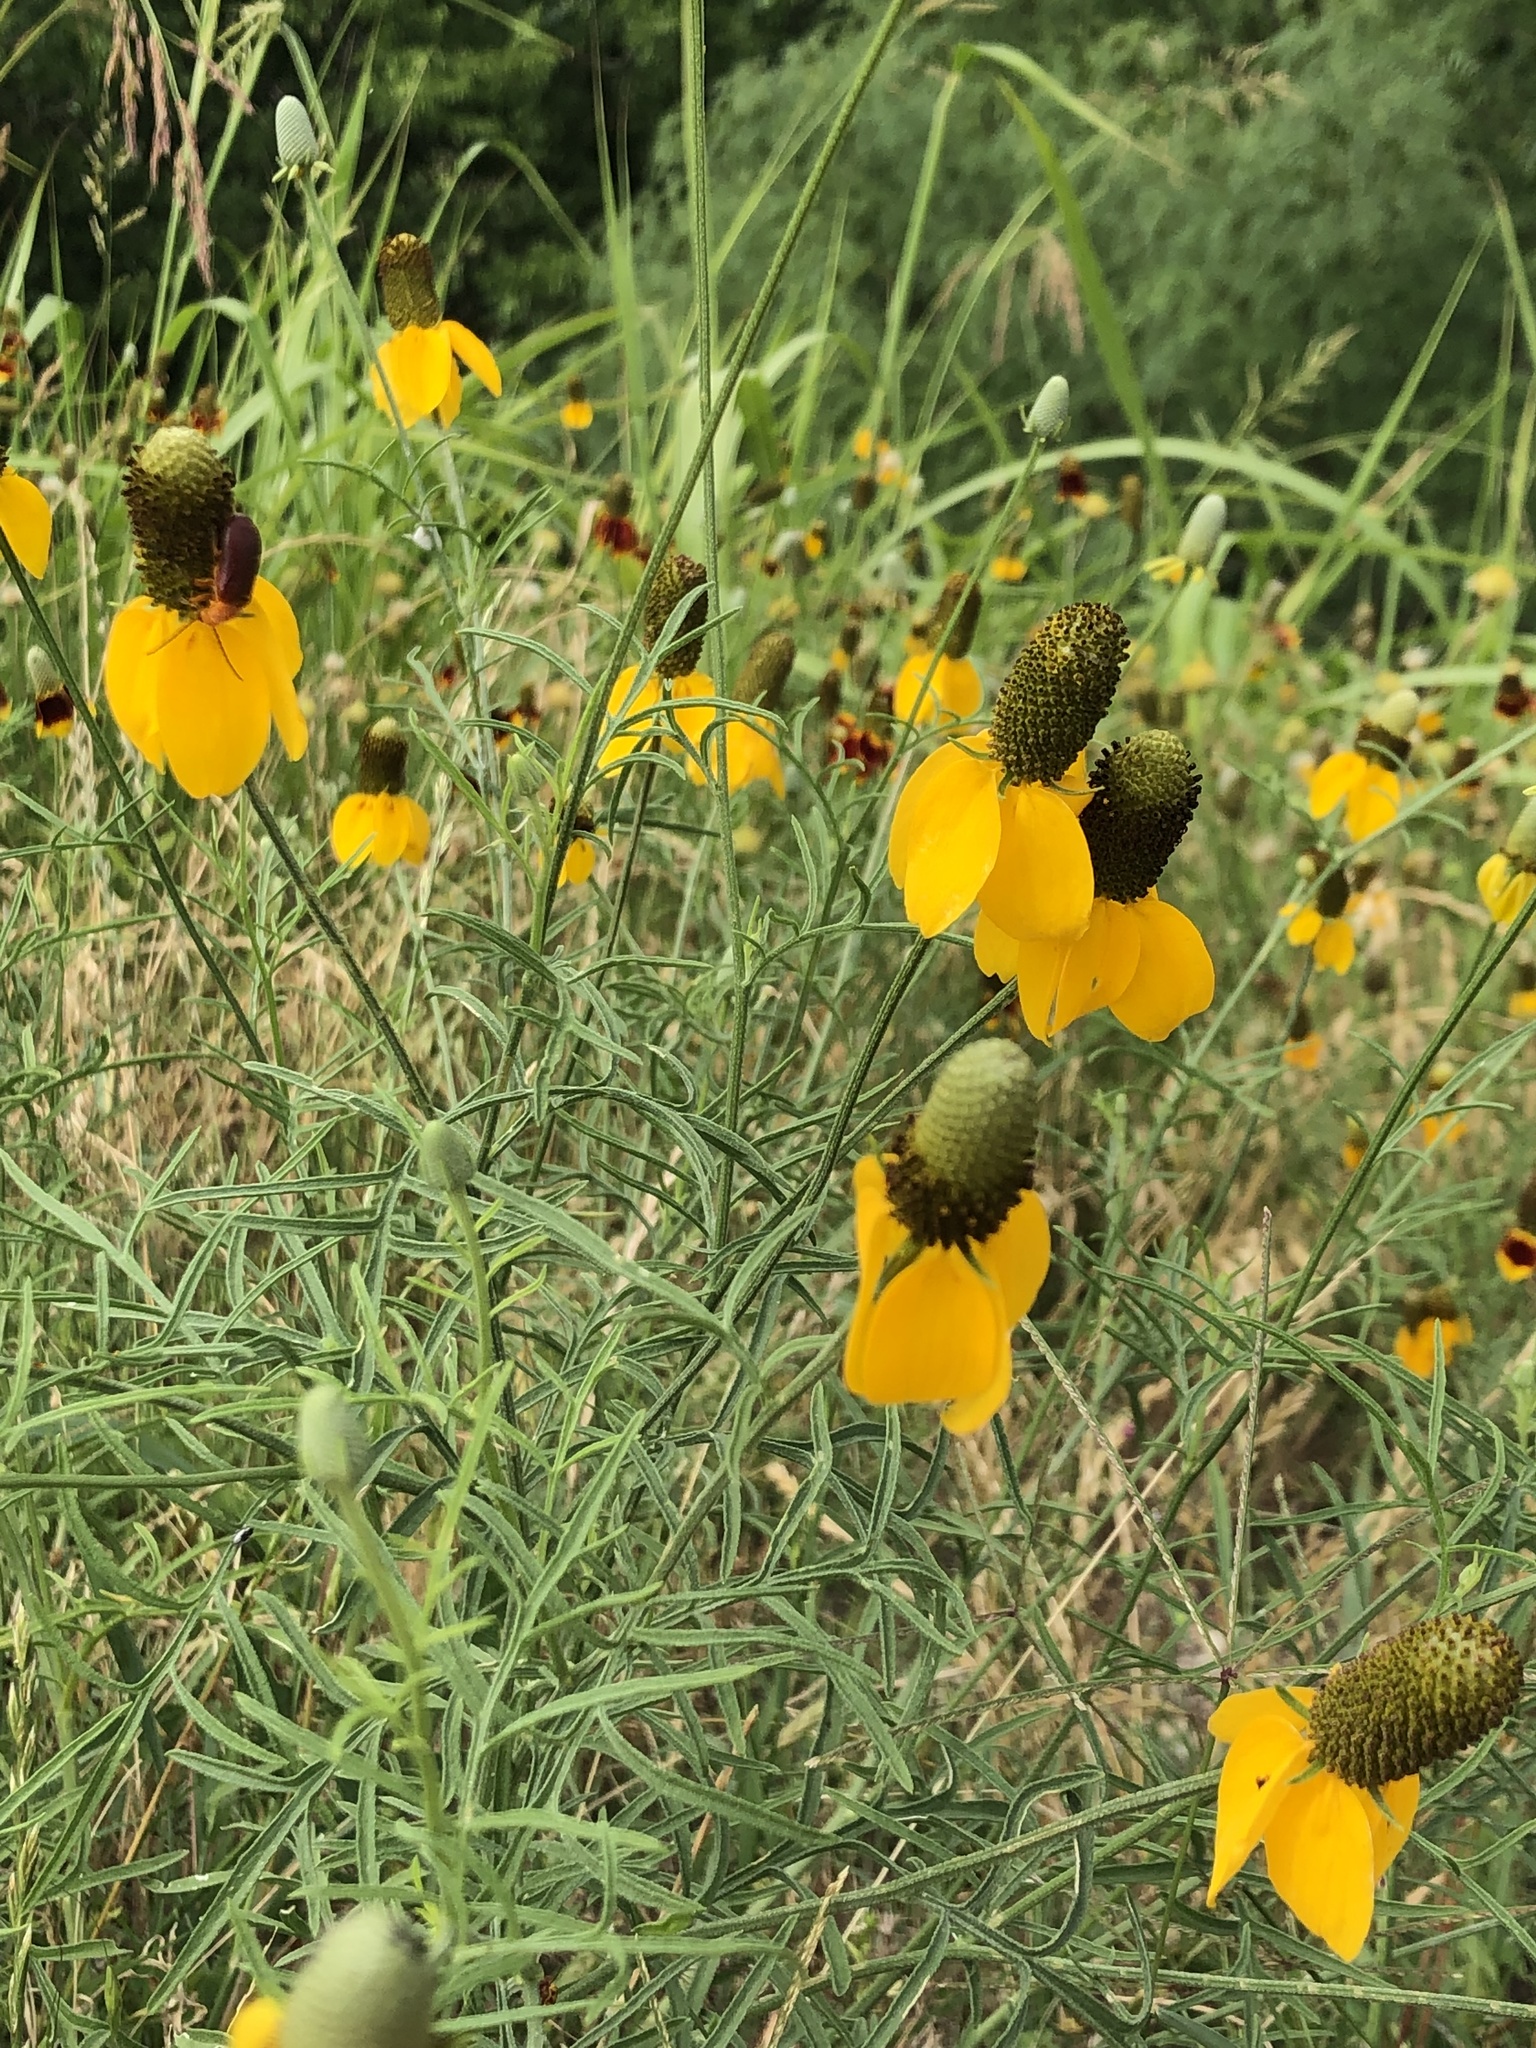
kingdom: Plantae
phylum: Tracheophyta
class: Magnoliopsida
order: Asterales
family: Asteraceae
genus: Ratibida
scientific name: Ratibida columnifera
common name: Prairie coneflower
